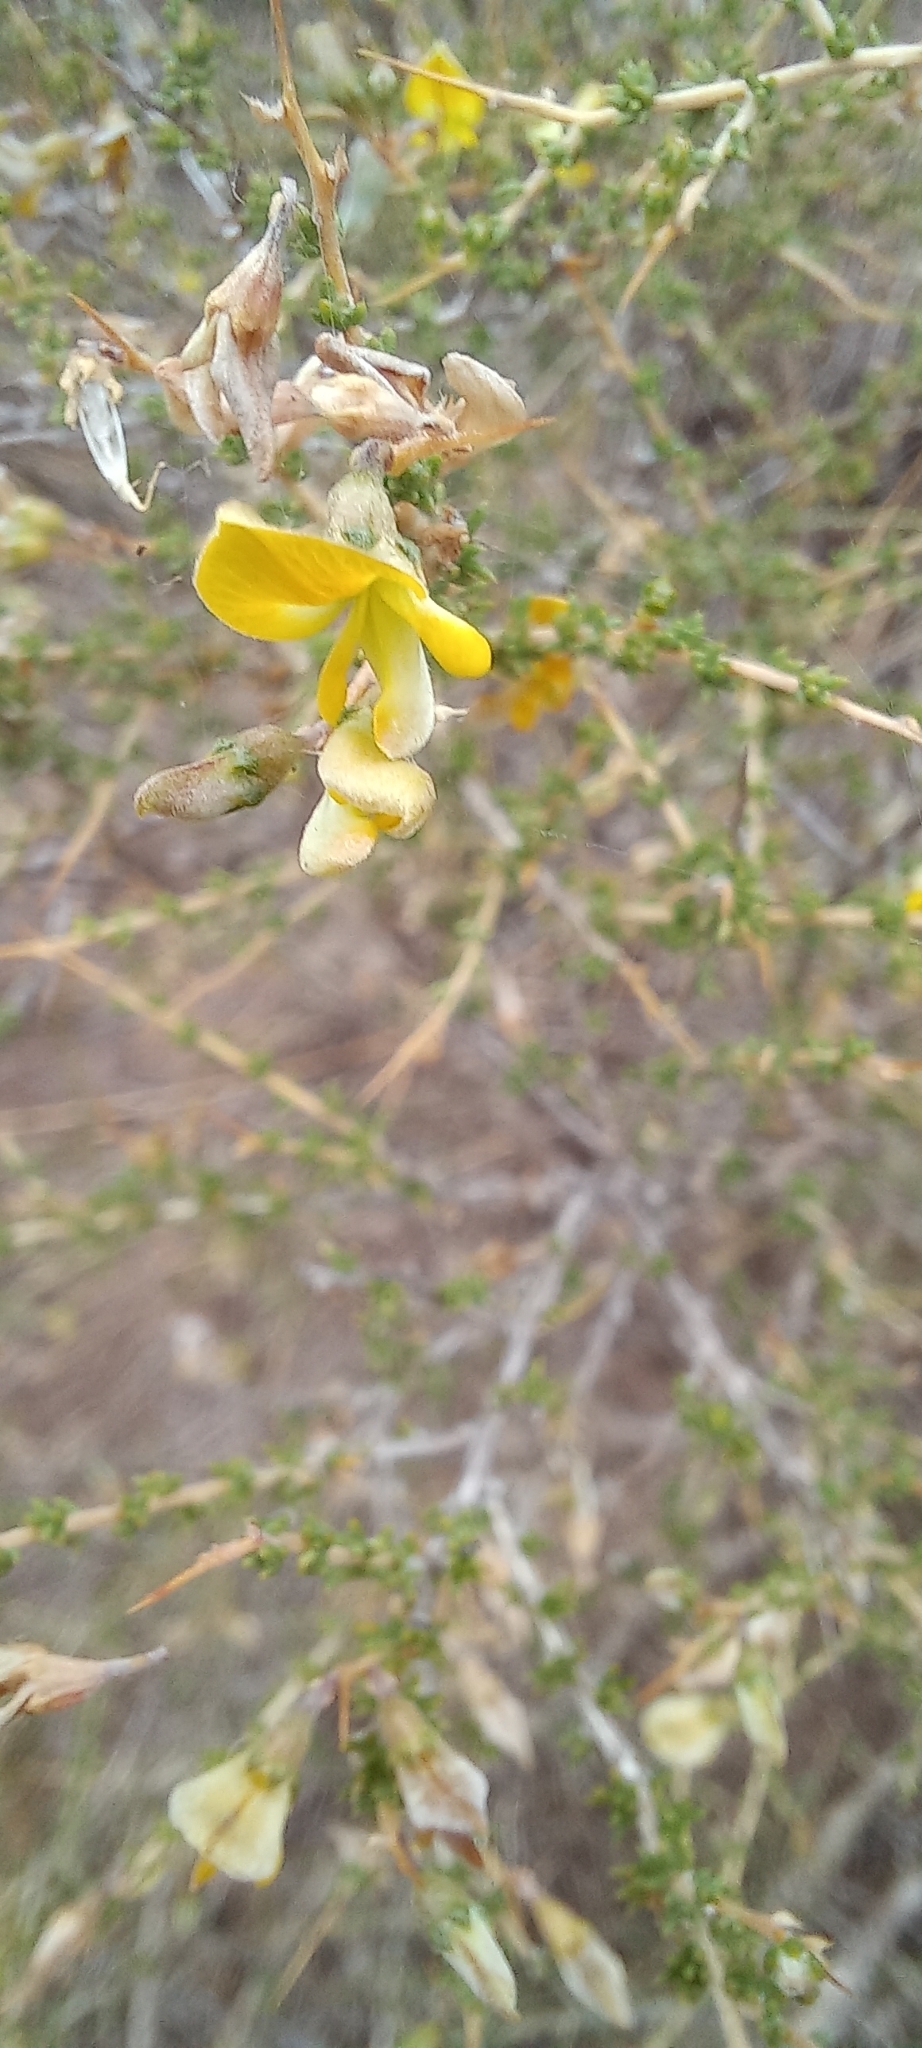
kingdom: Plantae
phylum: Tracheophyta
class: Magnoliopsida
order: Fabales
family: Fabaceae
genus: Aspalathus
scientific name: Aspalathus acuminata
